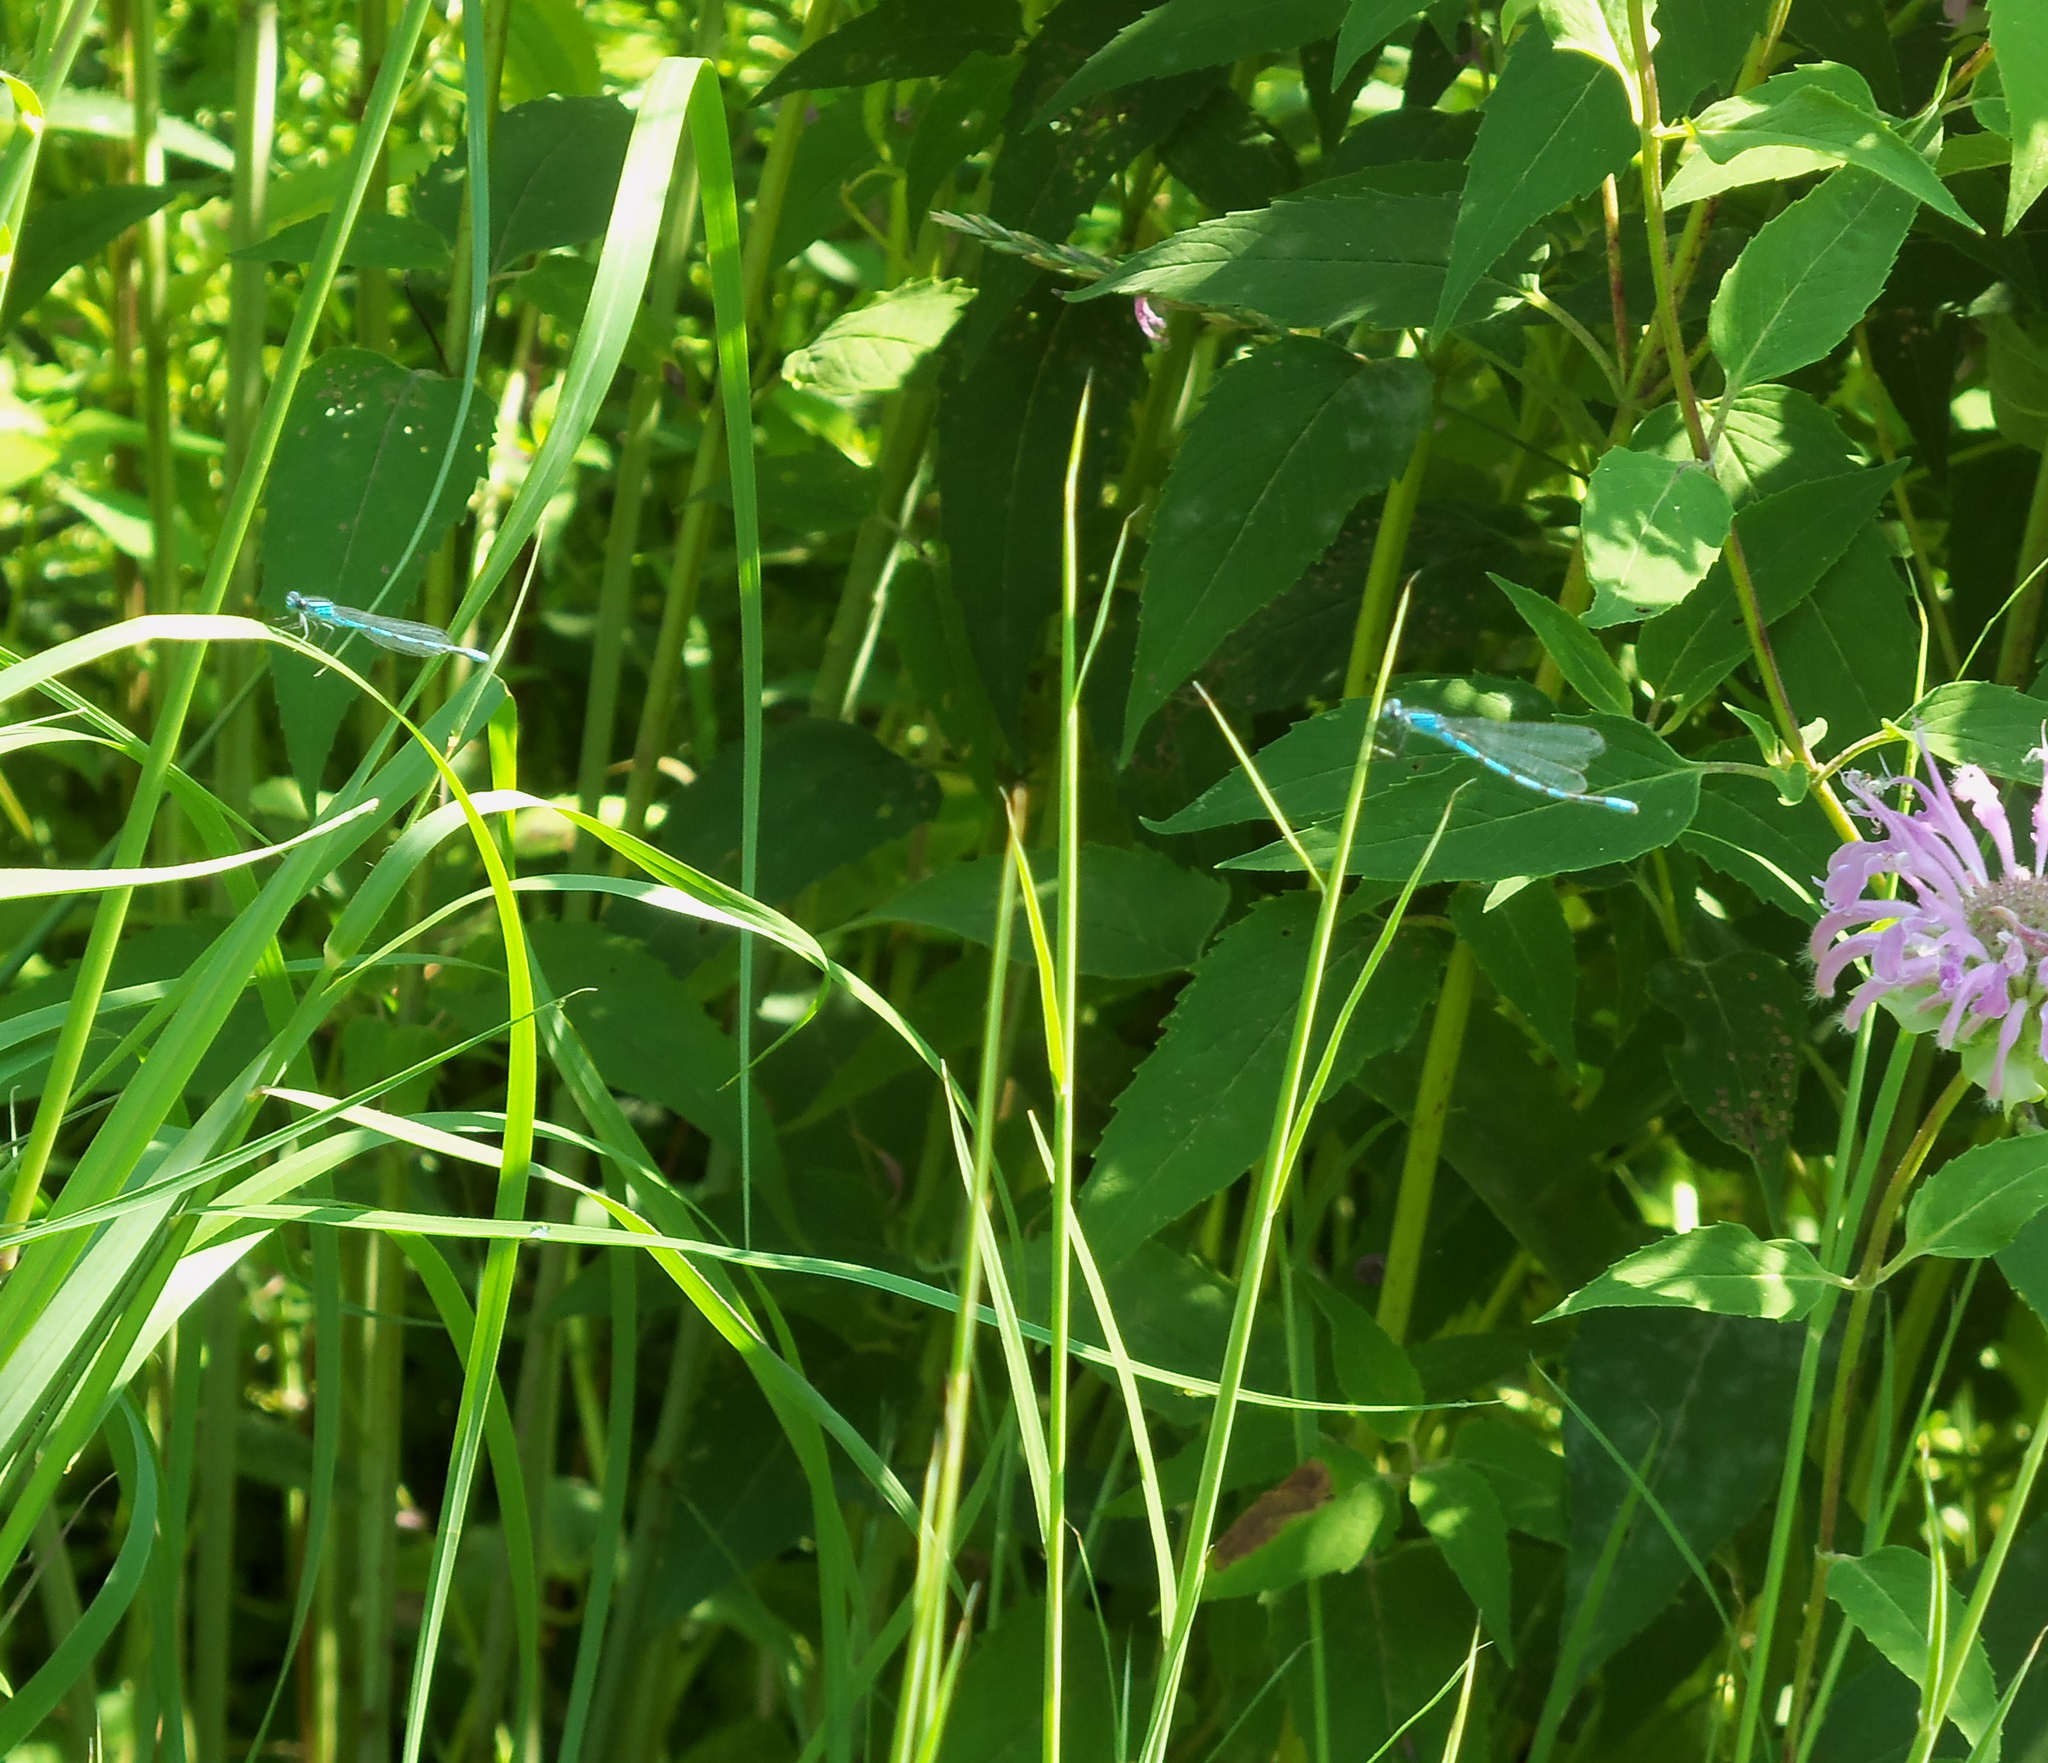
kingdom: Animalia
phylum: Arthropoda
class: Insecta
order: Odonata
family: Coenagrionidae
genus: Enallagma
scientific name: Enallagma civile
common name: Damselfly
